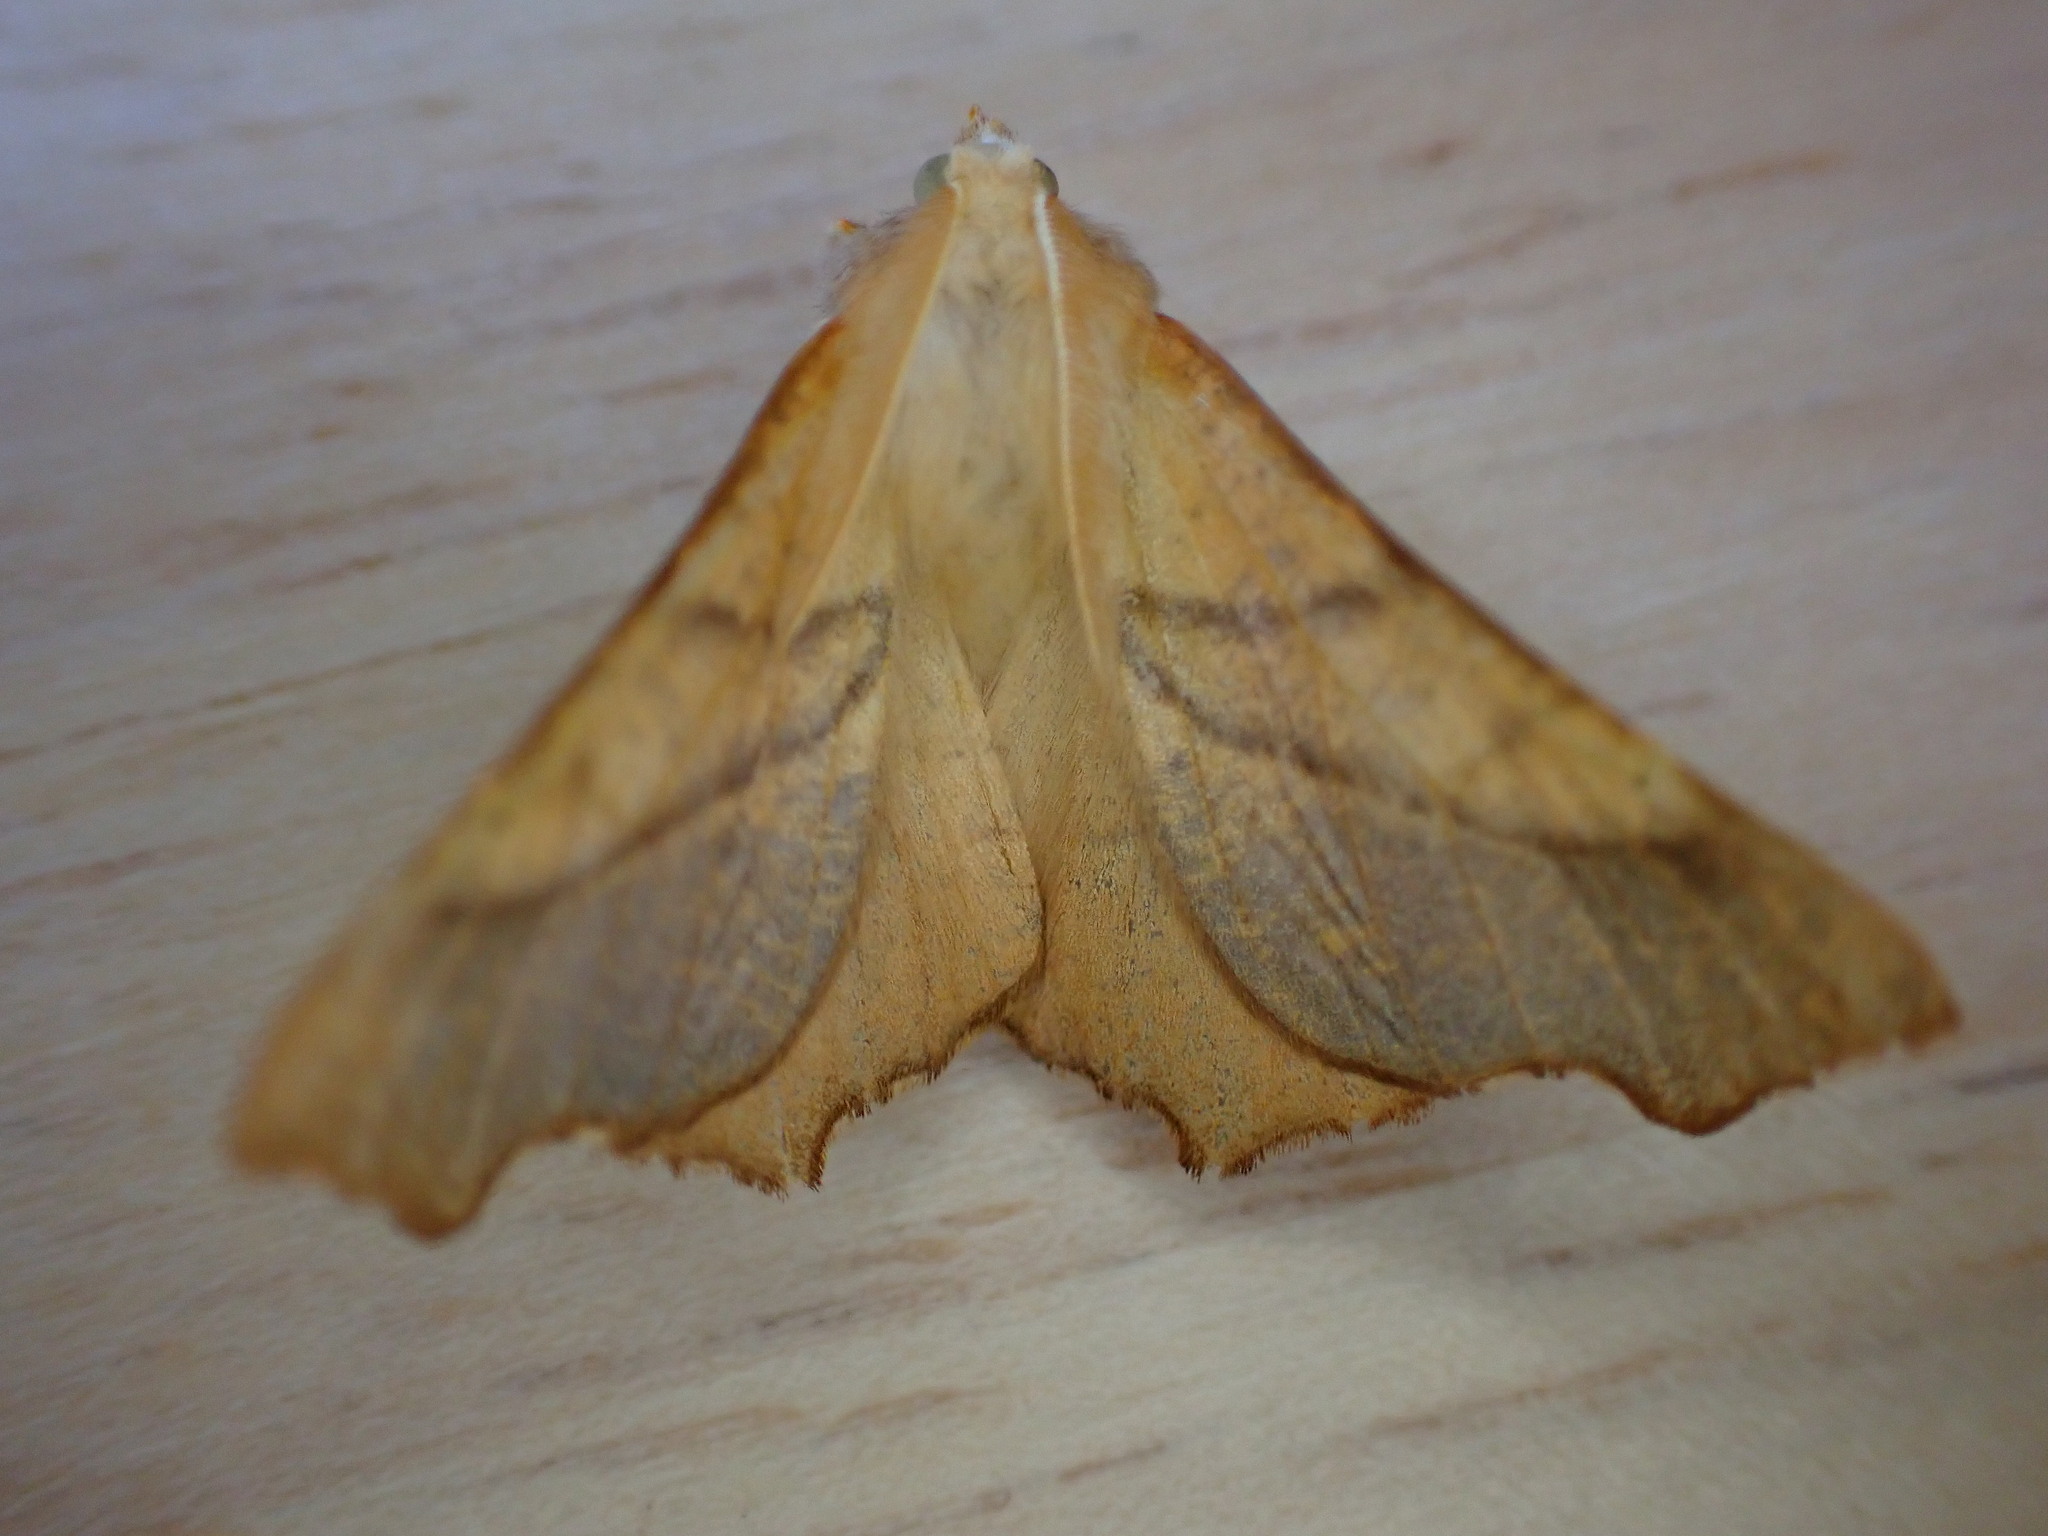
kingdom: Animalia
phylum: Arthropoda
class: Insecta
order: Lepidoptera
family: Geometridae
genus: Ennomos
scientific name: Ennomos fuscantaria
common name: Dusky thorn
